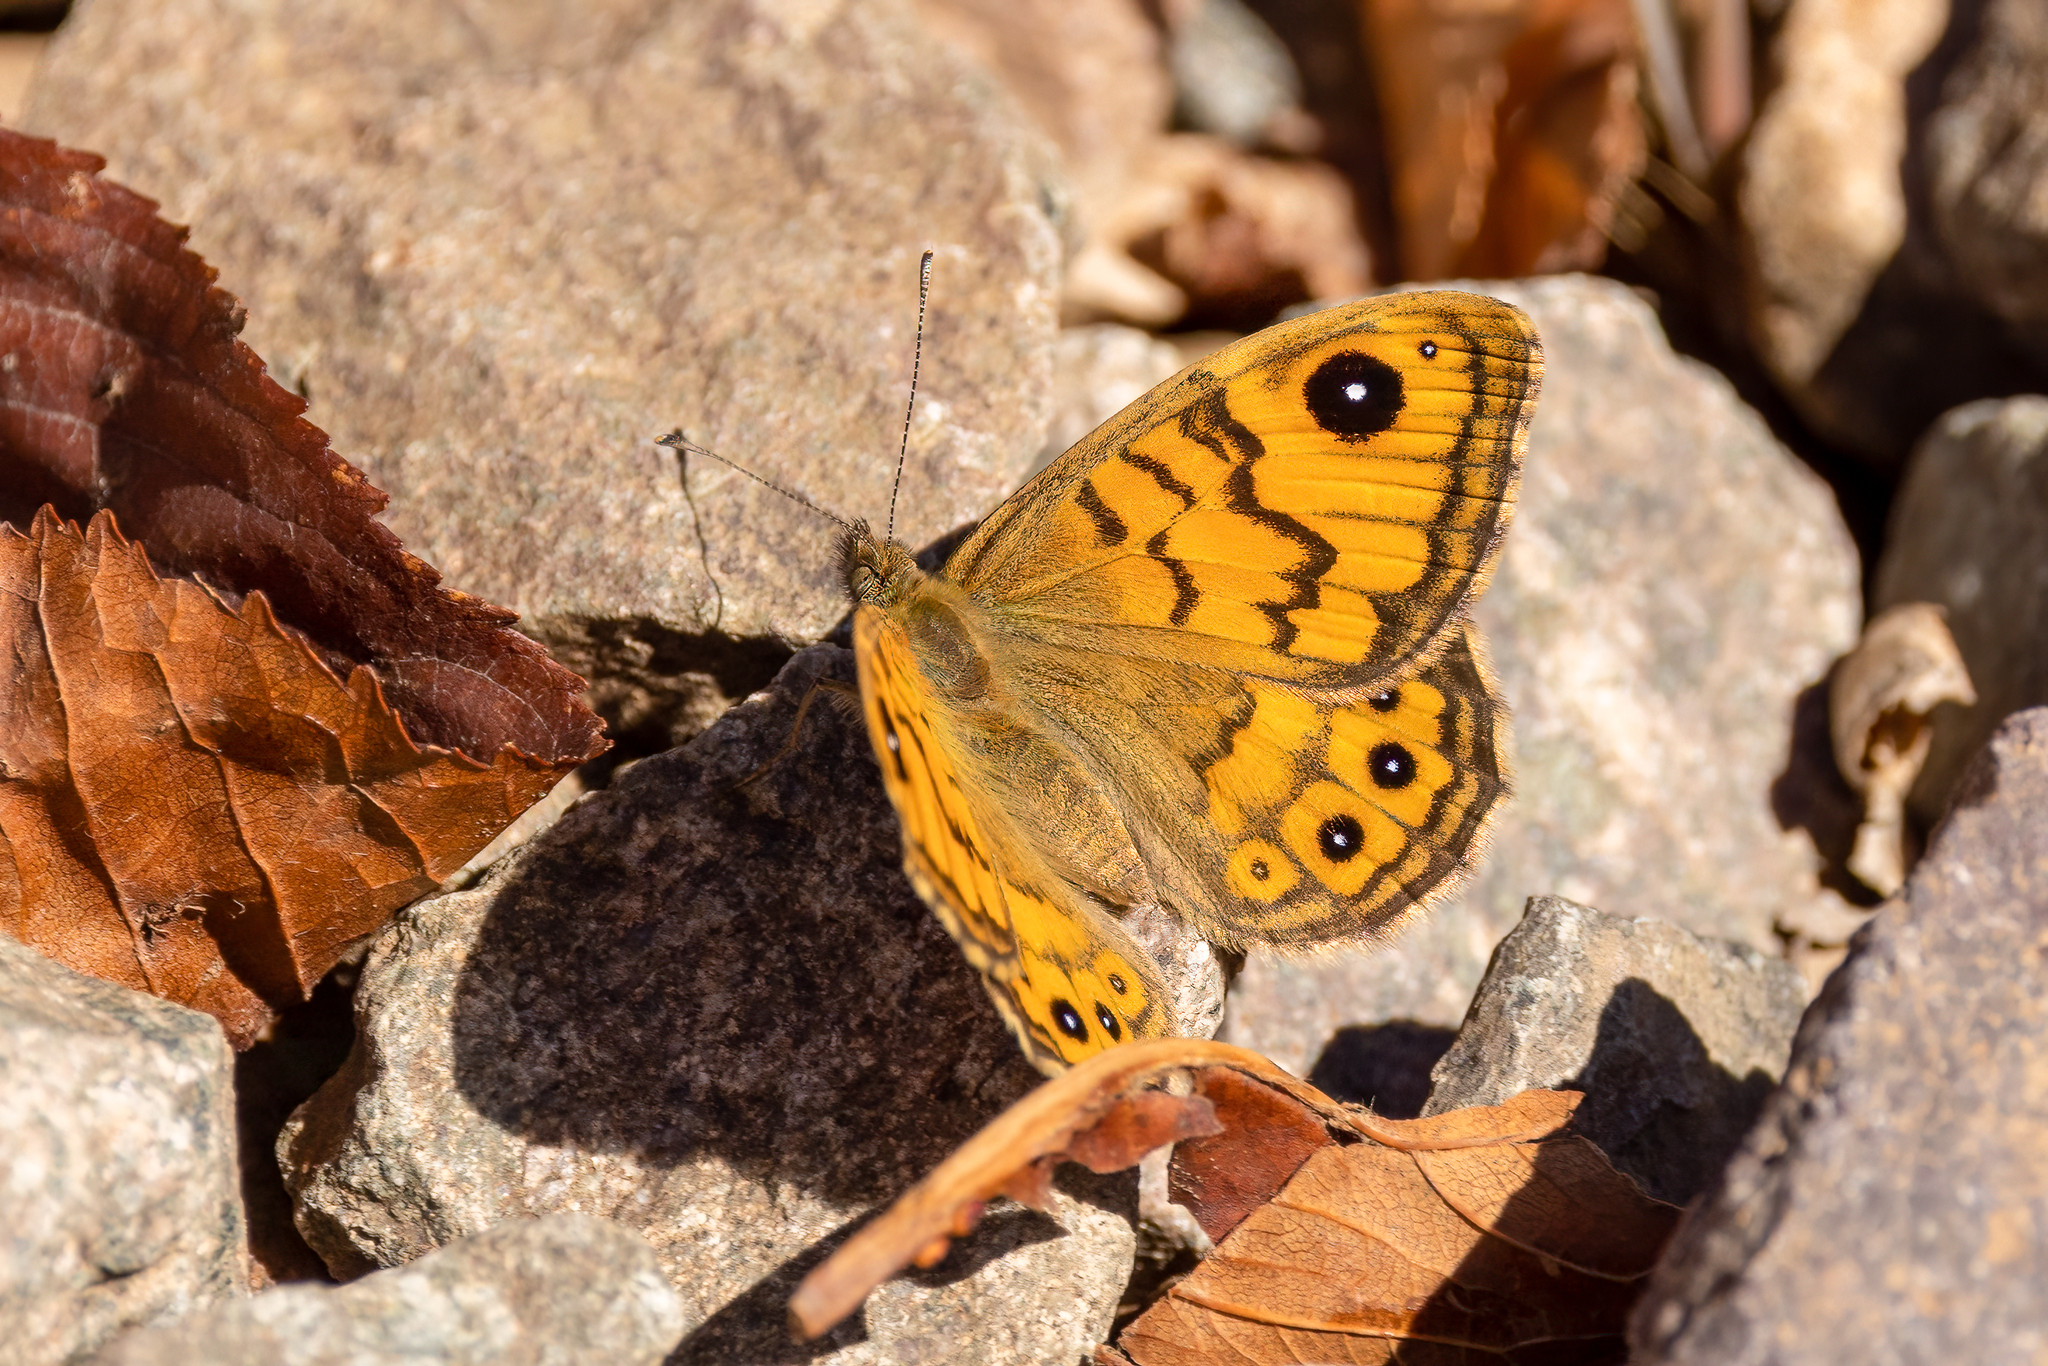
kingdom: Animalia
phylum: Arthropoda
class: Insecta
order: Lepidoptera
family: Nymphalidae
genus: Pararge
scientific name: Pararge Lasiommata megera
